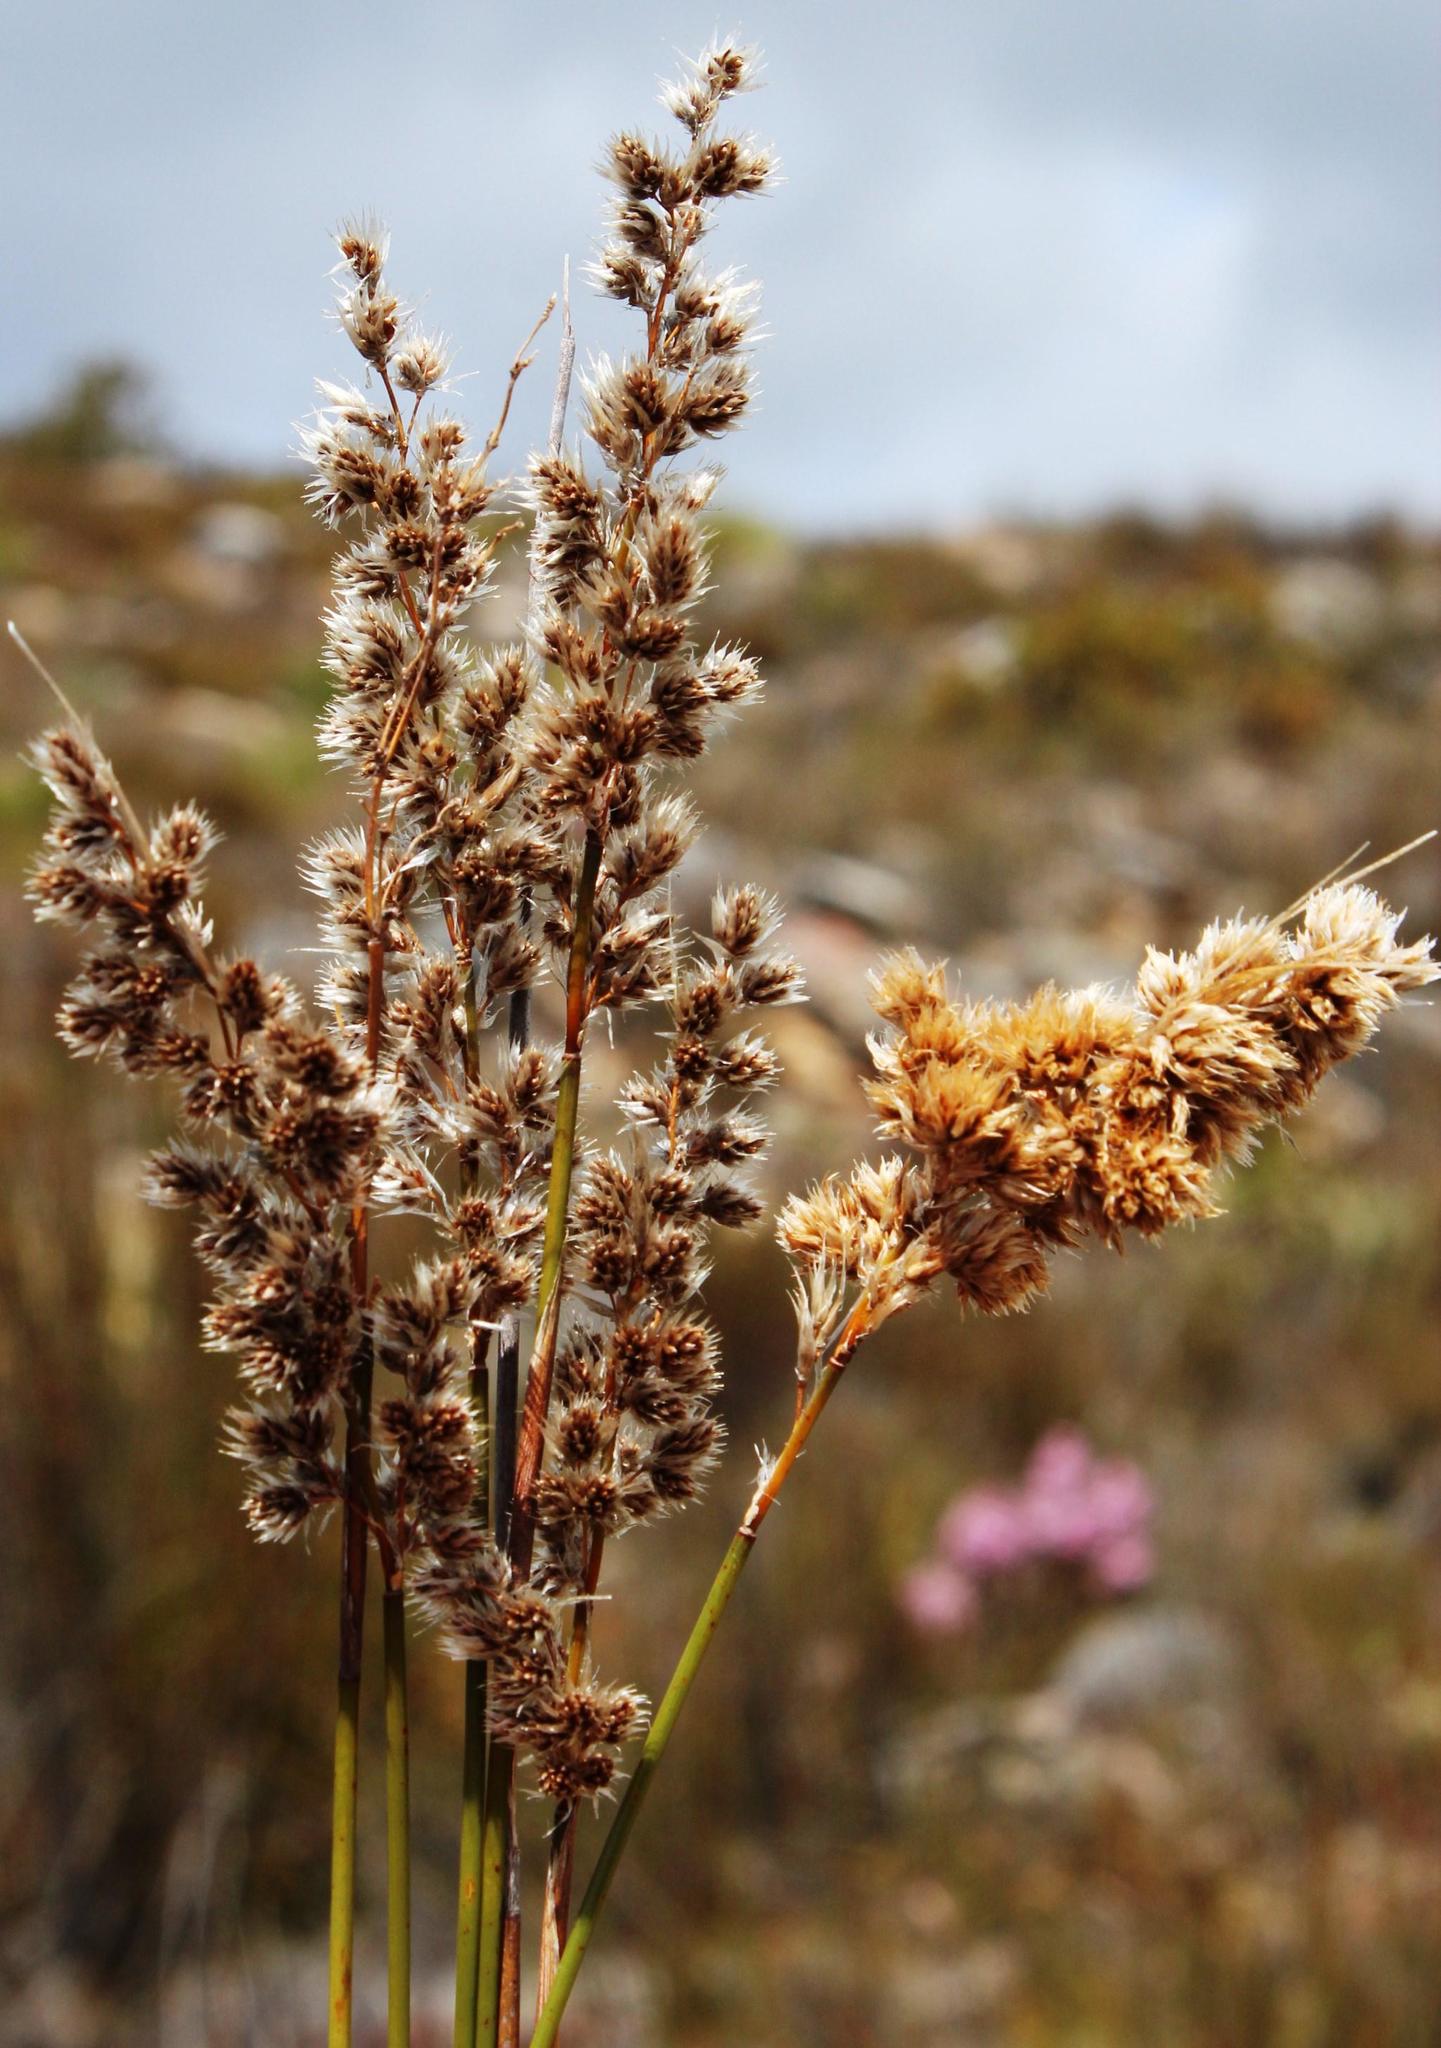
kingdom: Plantae
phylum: Tracheophyta
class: Liliopsida
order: Poales
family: Restionaceae
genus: Hypodiscus
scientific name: Hypodiscus argenteus
